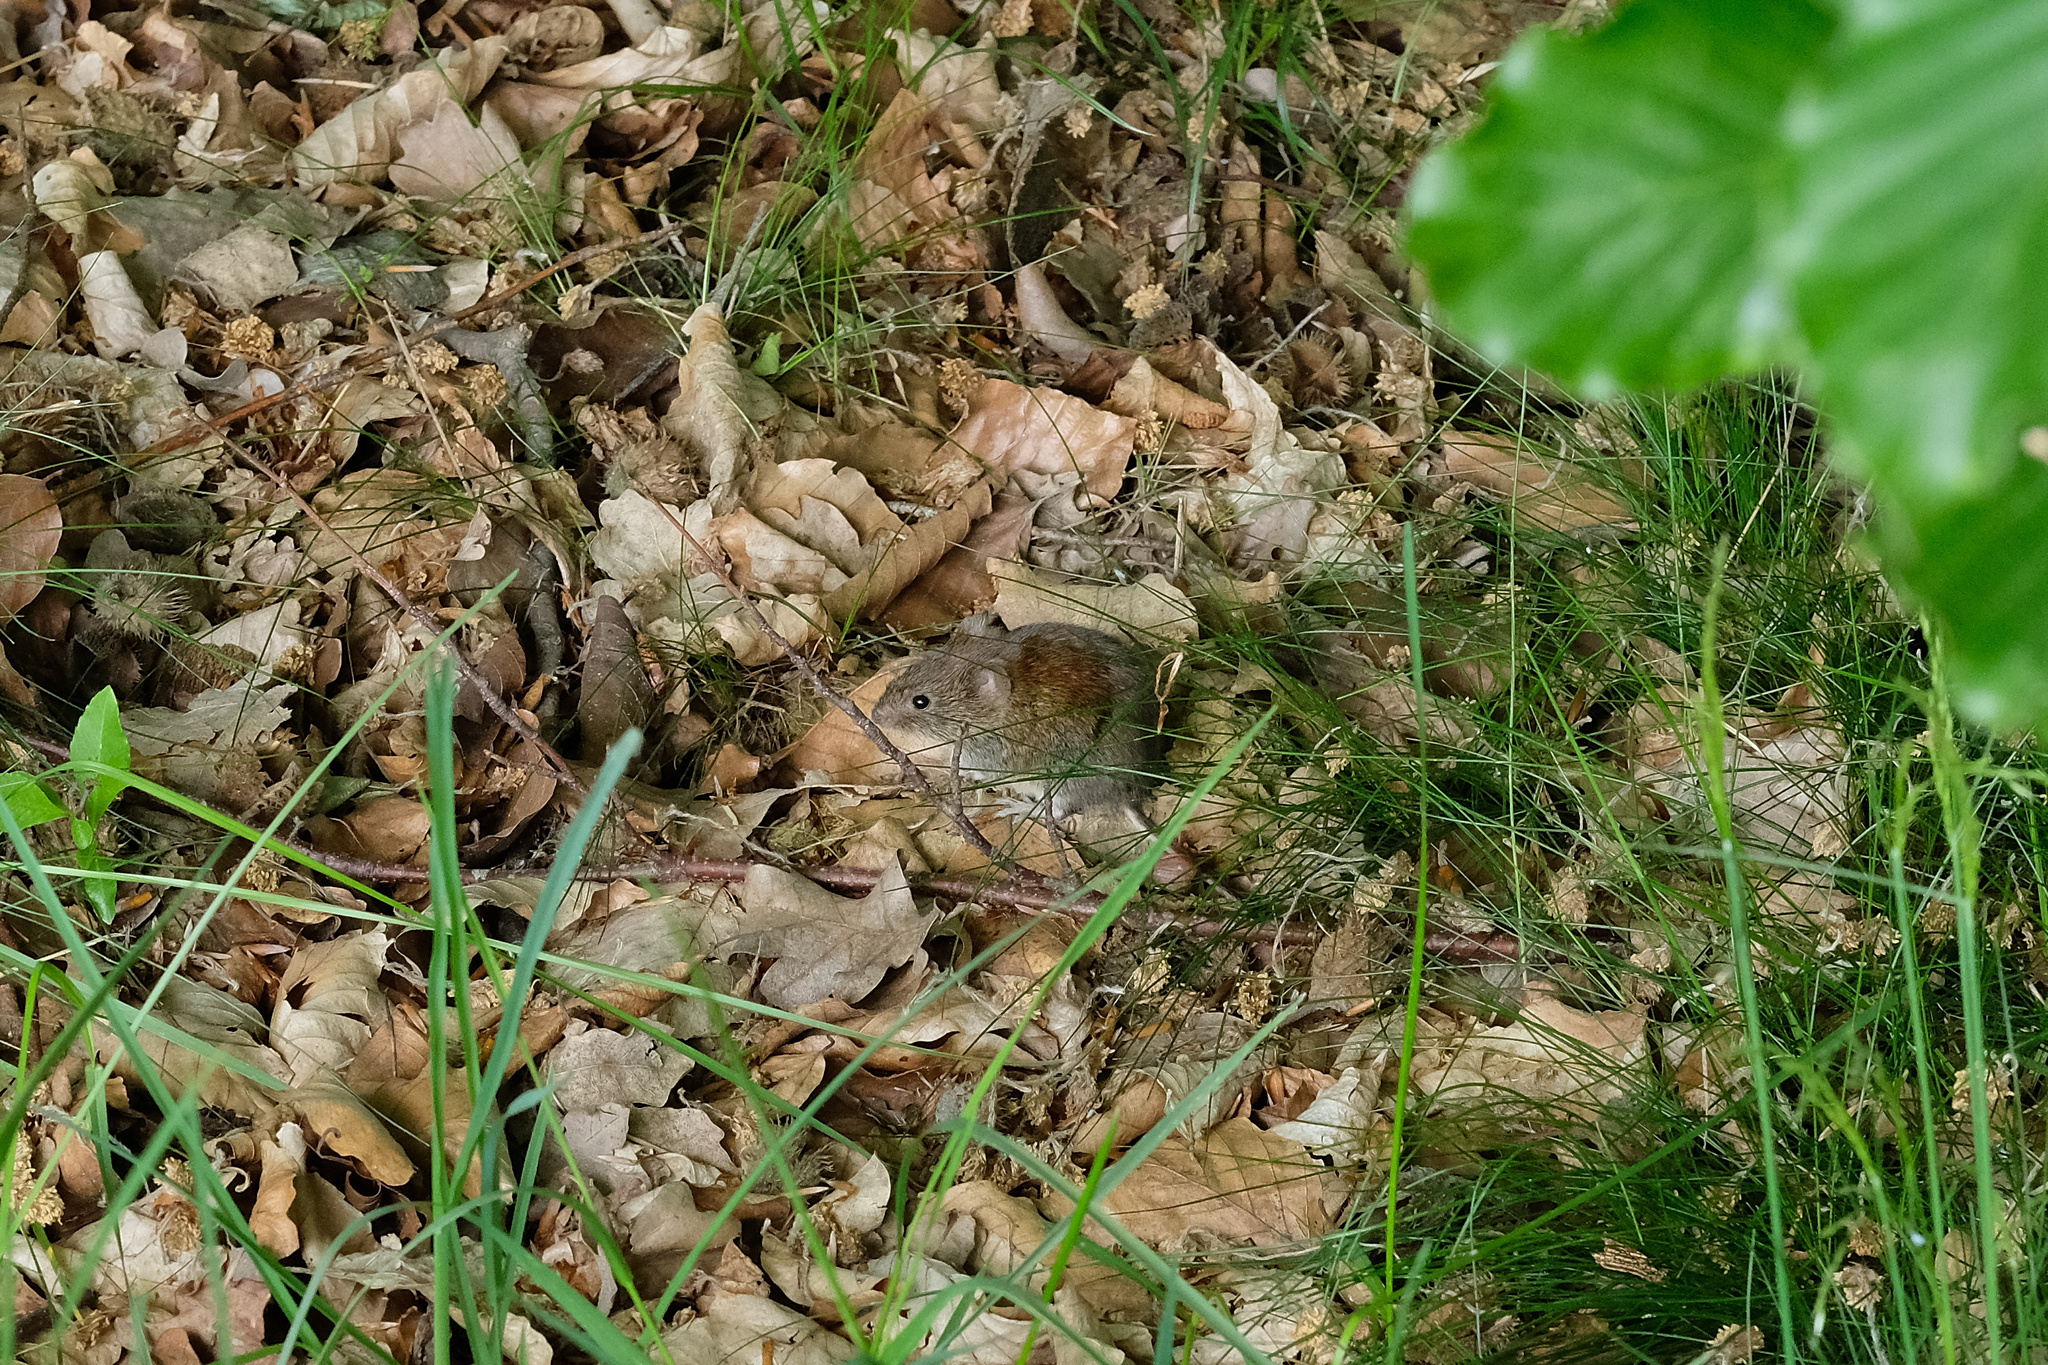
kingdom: Animalia
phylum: Chordata
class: Mammalia
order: Rodentia
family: Cricetidae
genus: Myodes
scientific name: Myodes glareolus
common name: Bank vole
